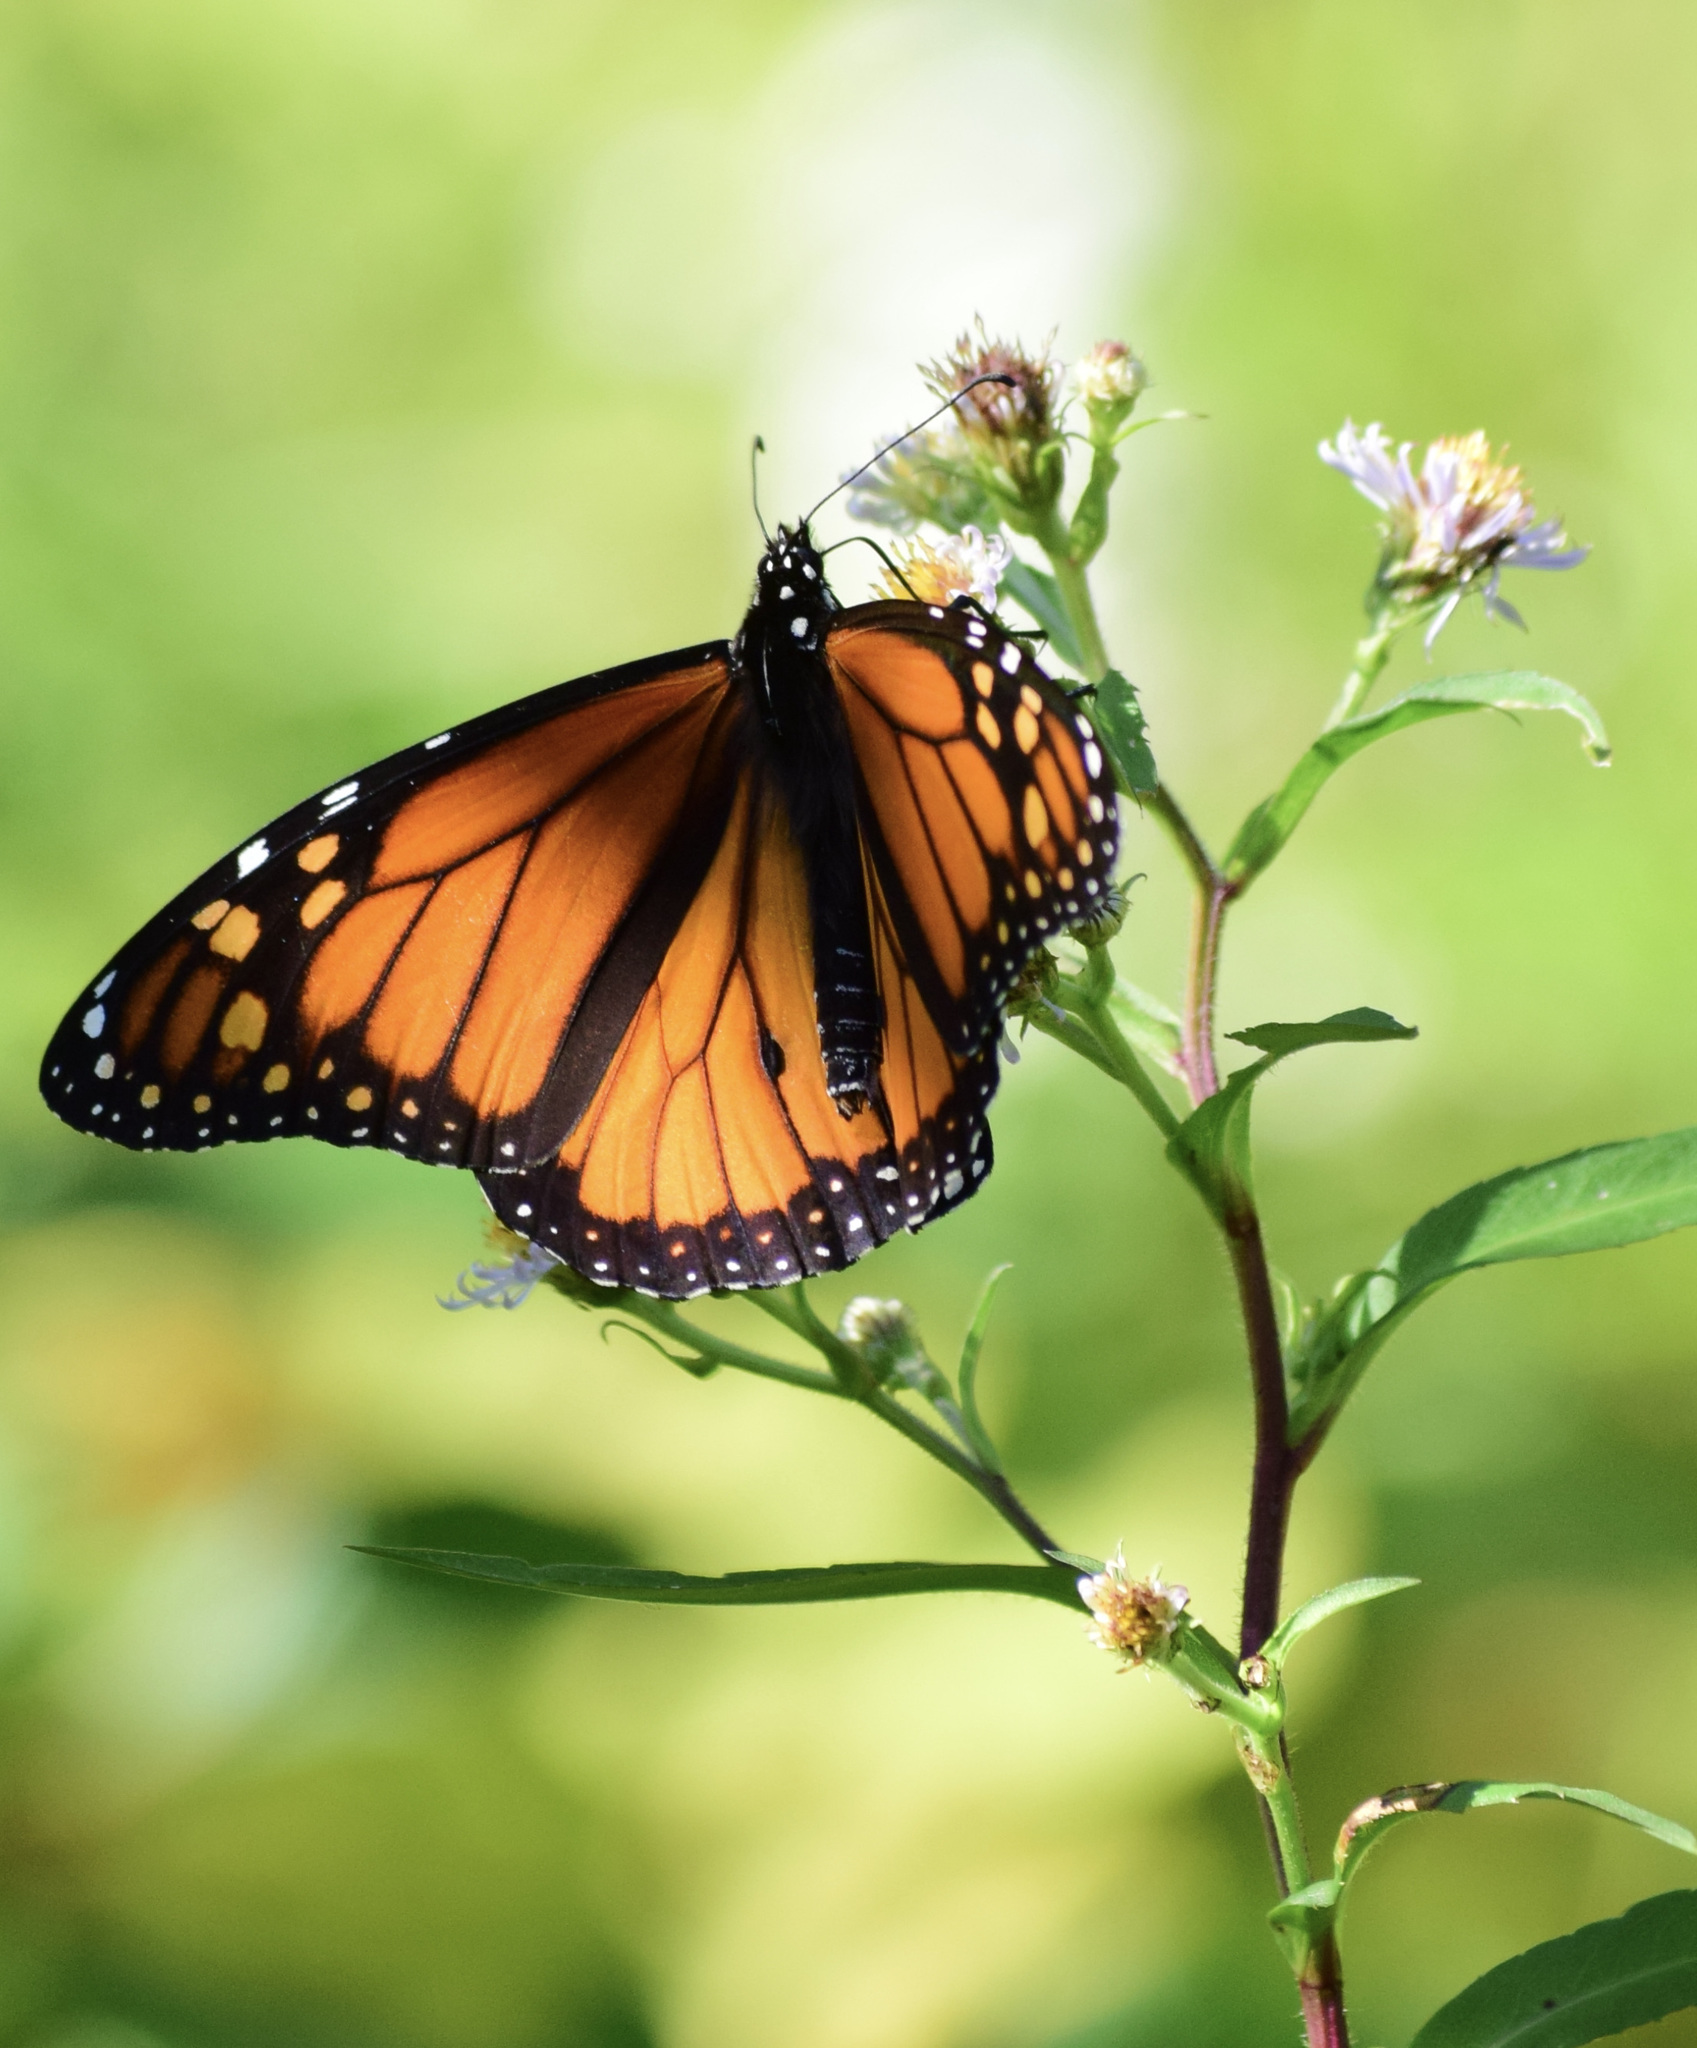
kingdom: Animalia
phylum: Arthropoda
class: Insecta
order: Lepidoptera
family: Nymphalidae
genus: Danaus
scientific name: Danaus plexippus
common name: Monarch
